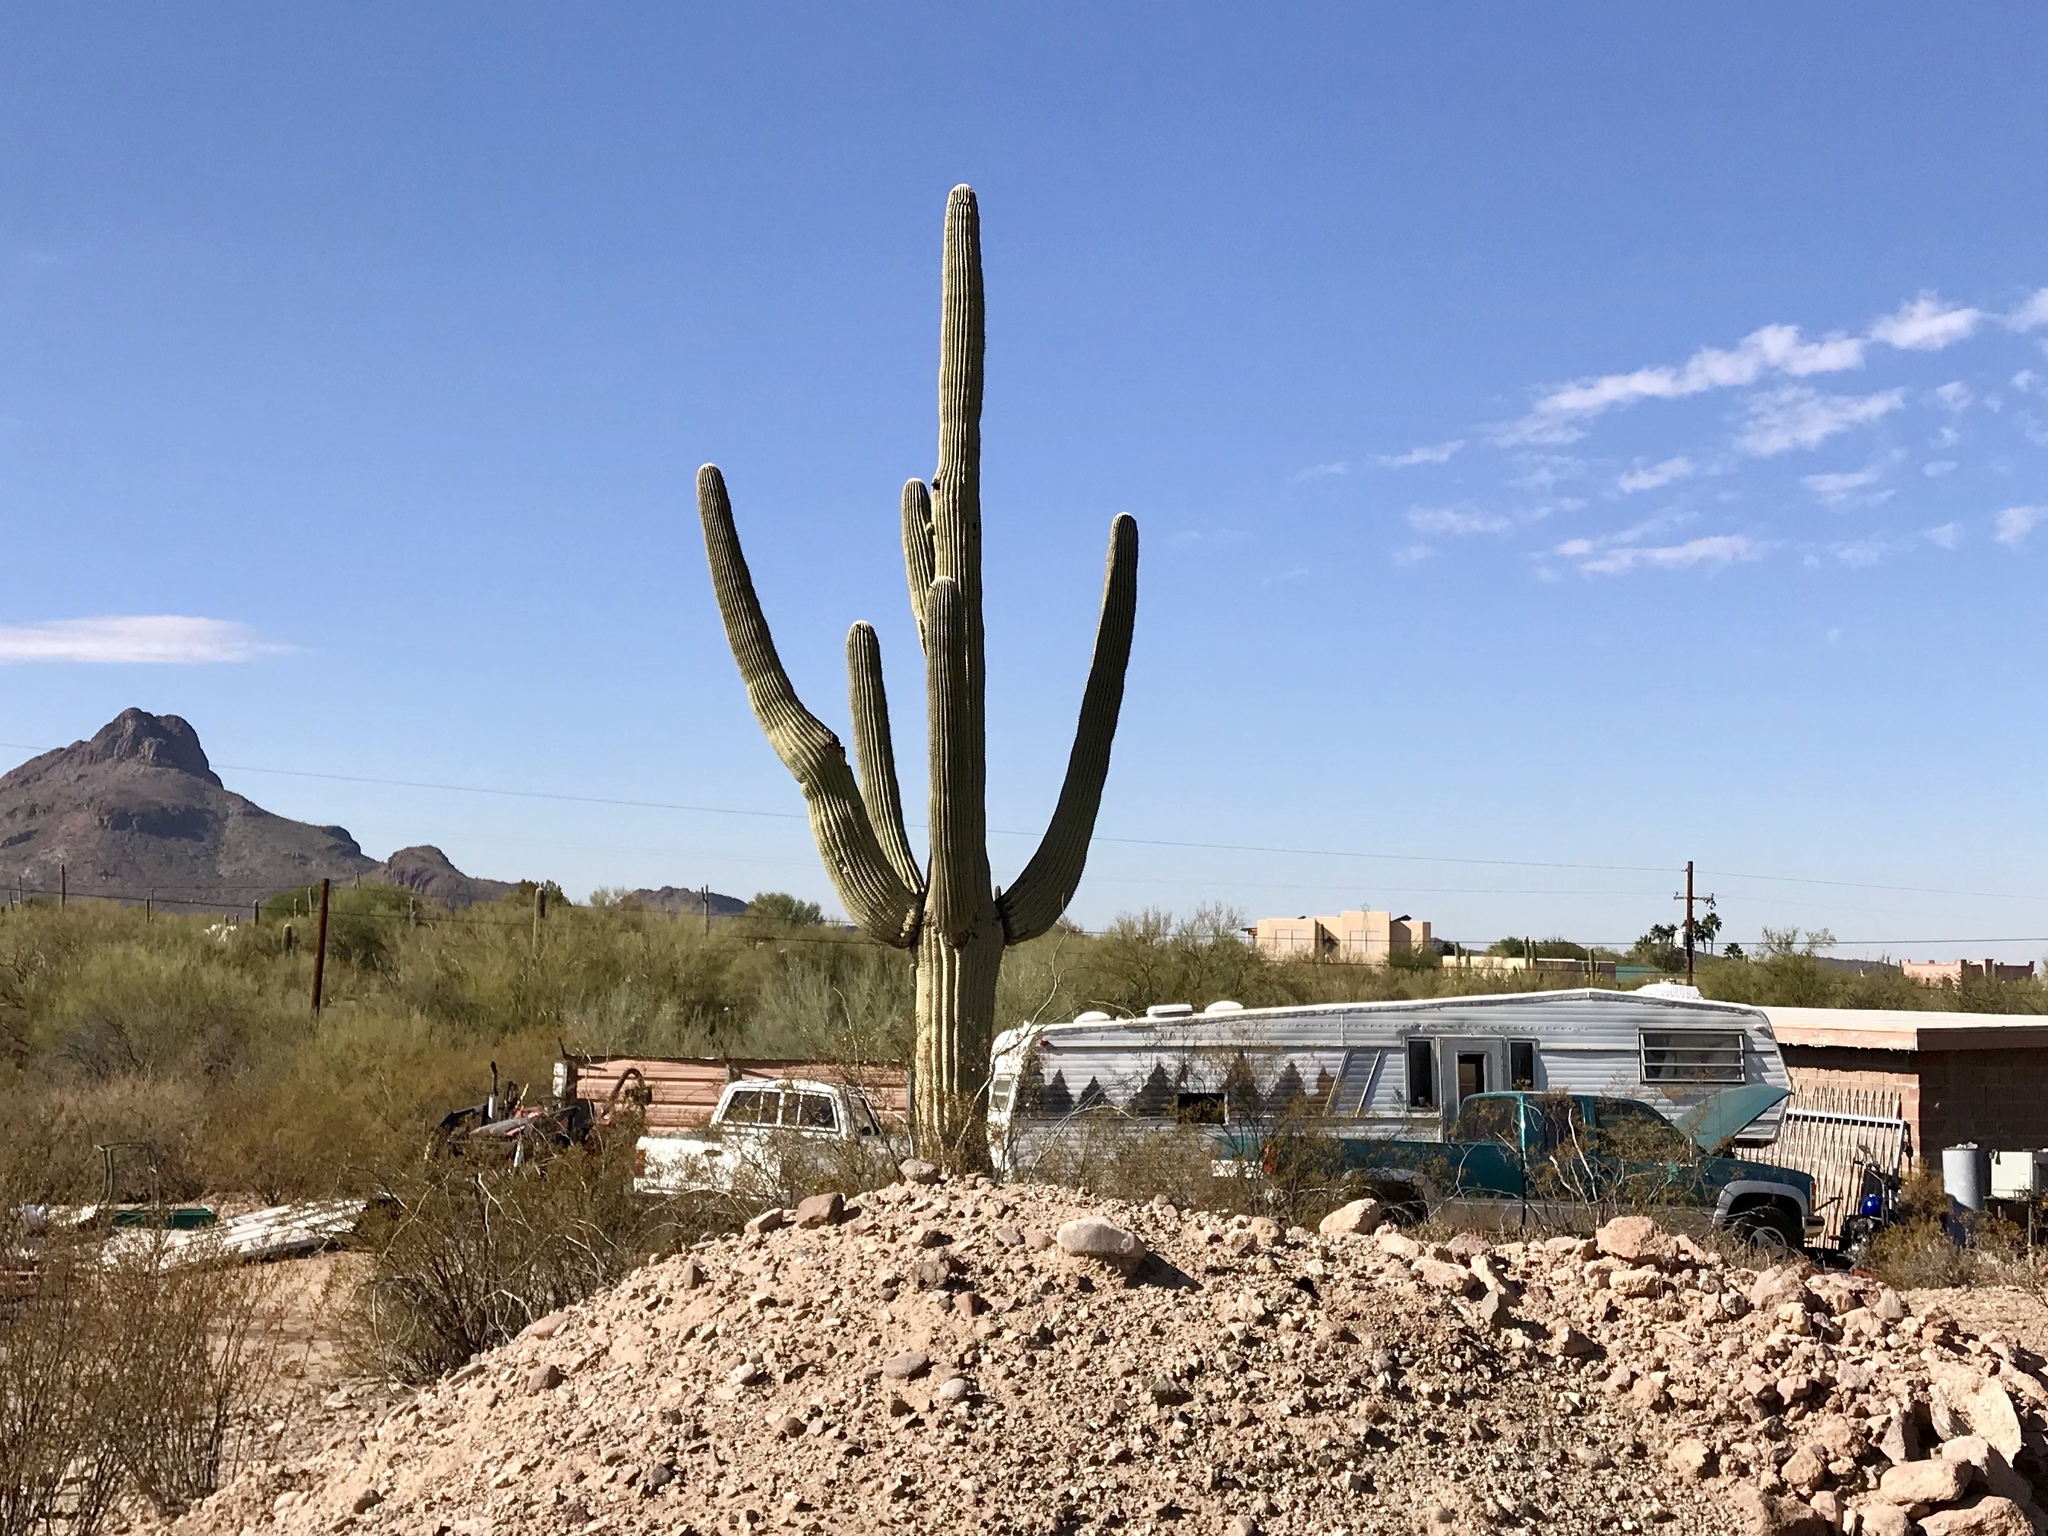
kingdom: Plantae
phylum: Tracheophyta
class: Magnoliopsida
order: Caryophyllales
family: Cactaceae
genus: Carnegiea
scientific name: Carnegiea gigantea
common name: Saguaro
